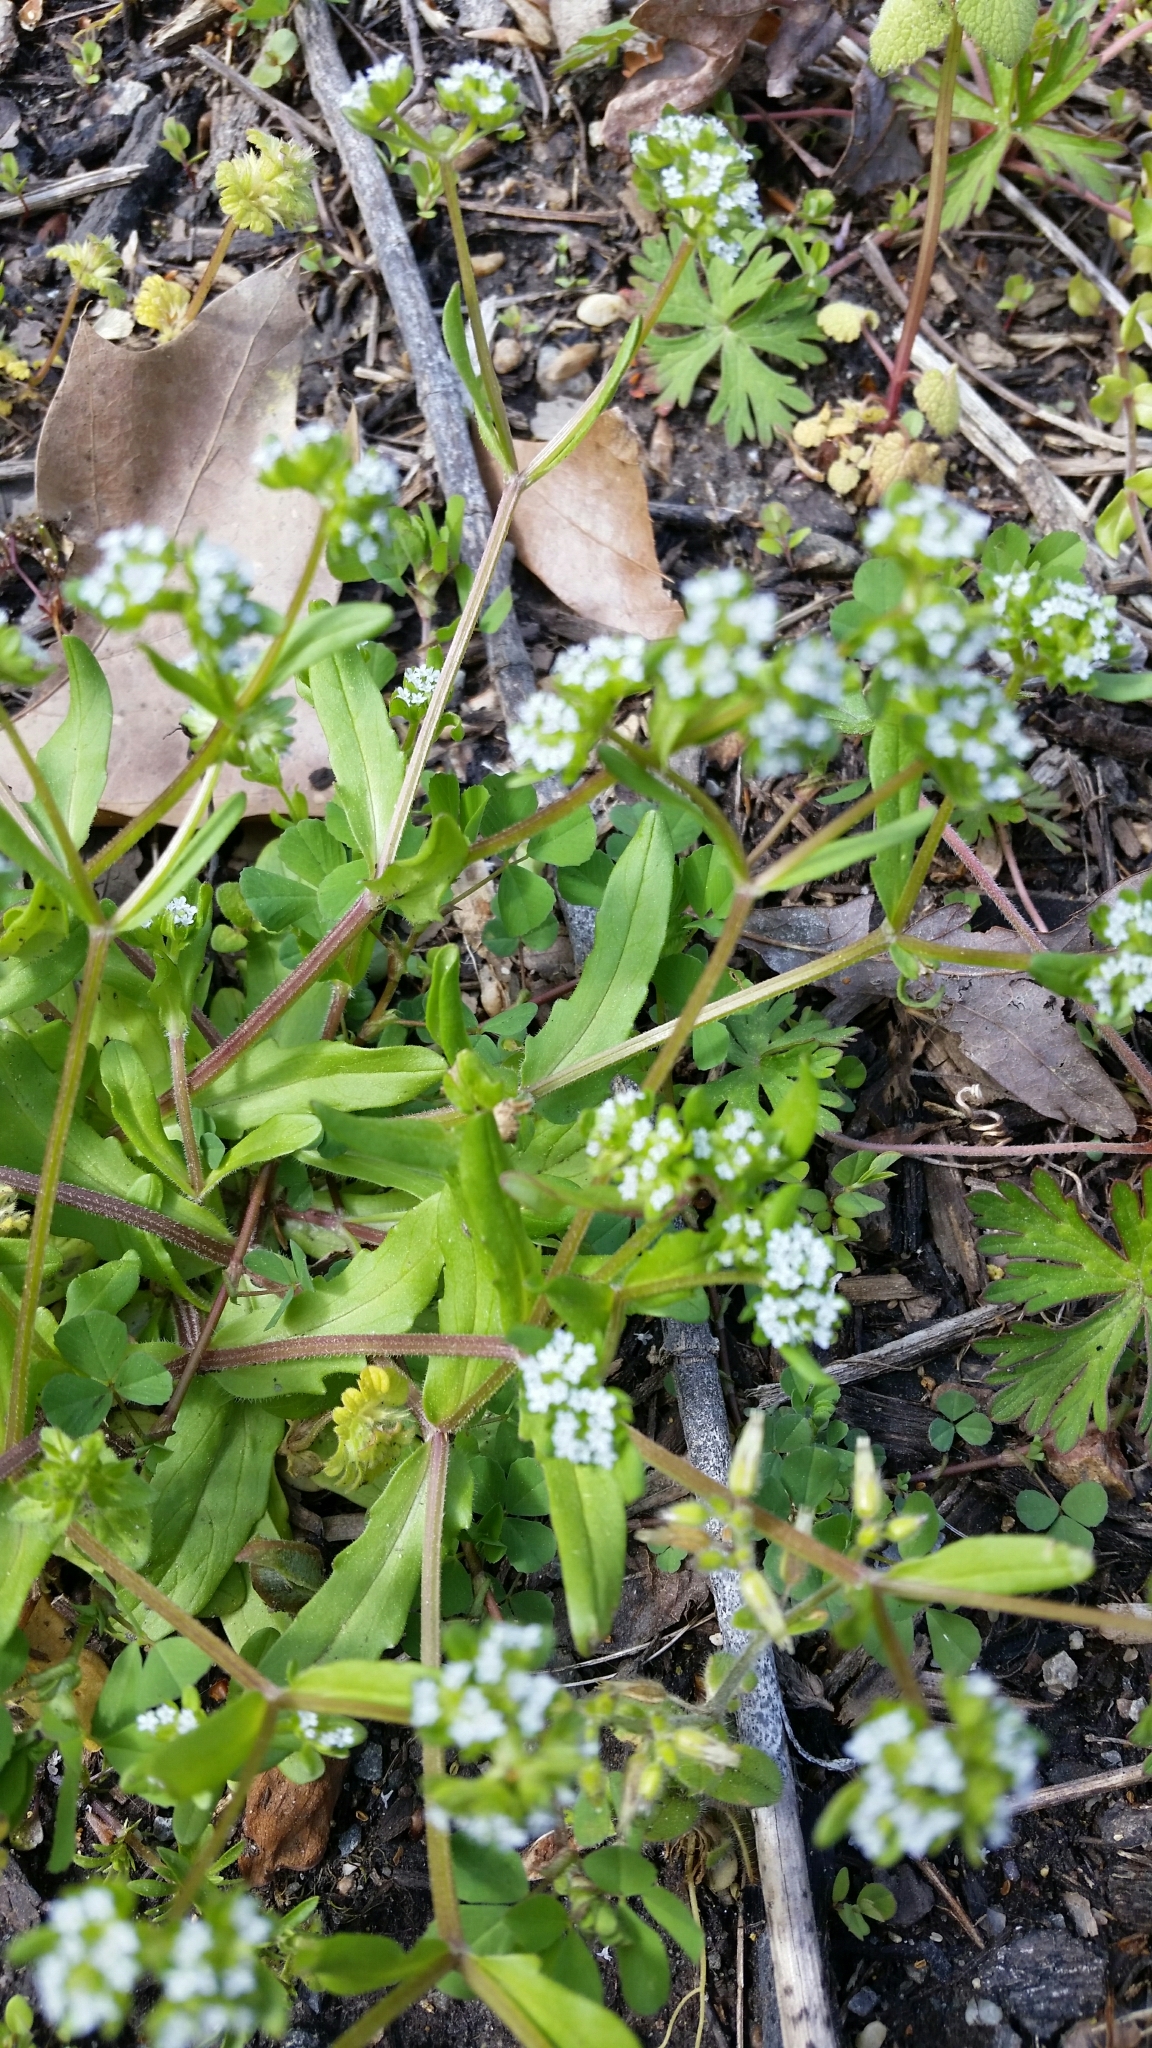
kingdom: Plantae
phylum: Tracheophyta
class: Magnoliopsida
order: Dipsacales
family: Caprifoliaceae
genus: Valerianella
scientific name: Valerianella locusta
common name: Common cornsalad
